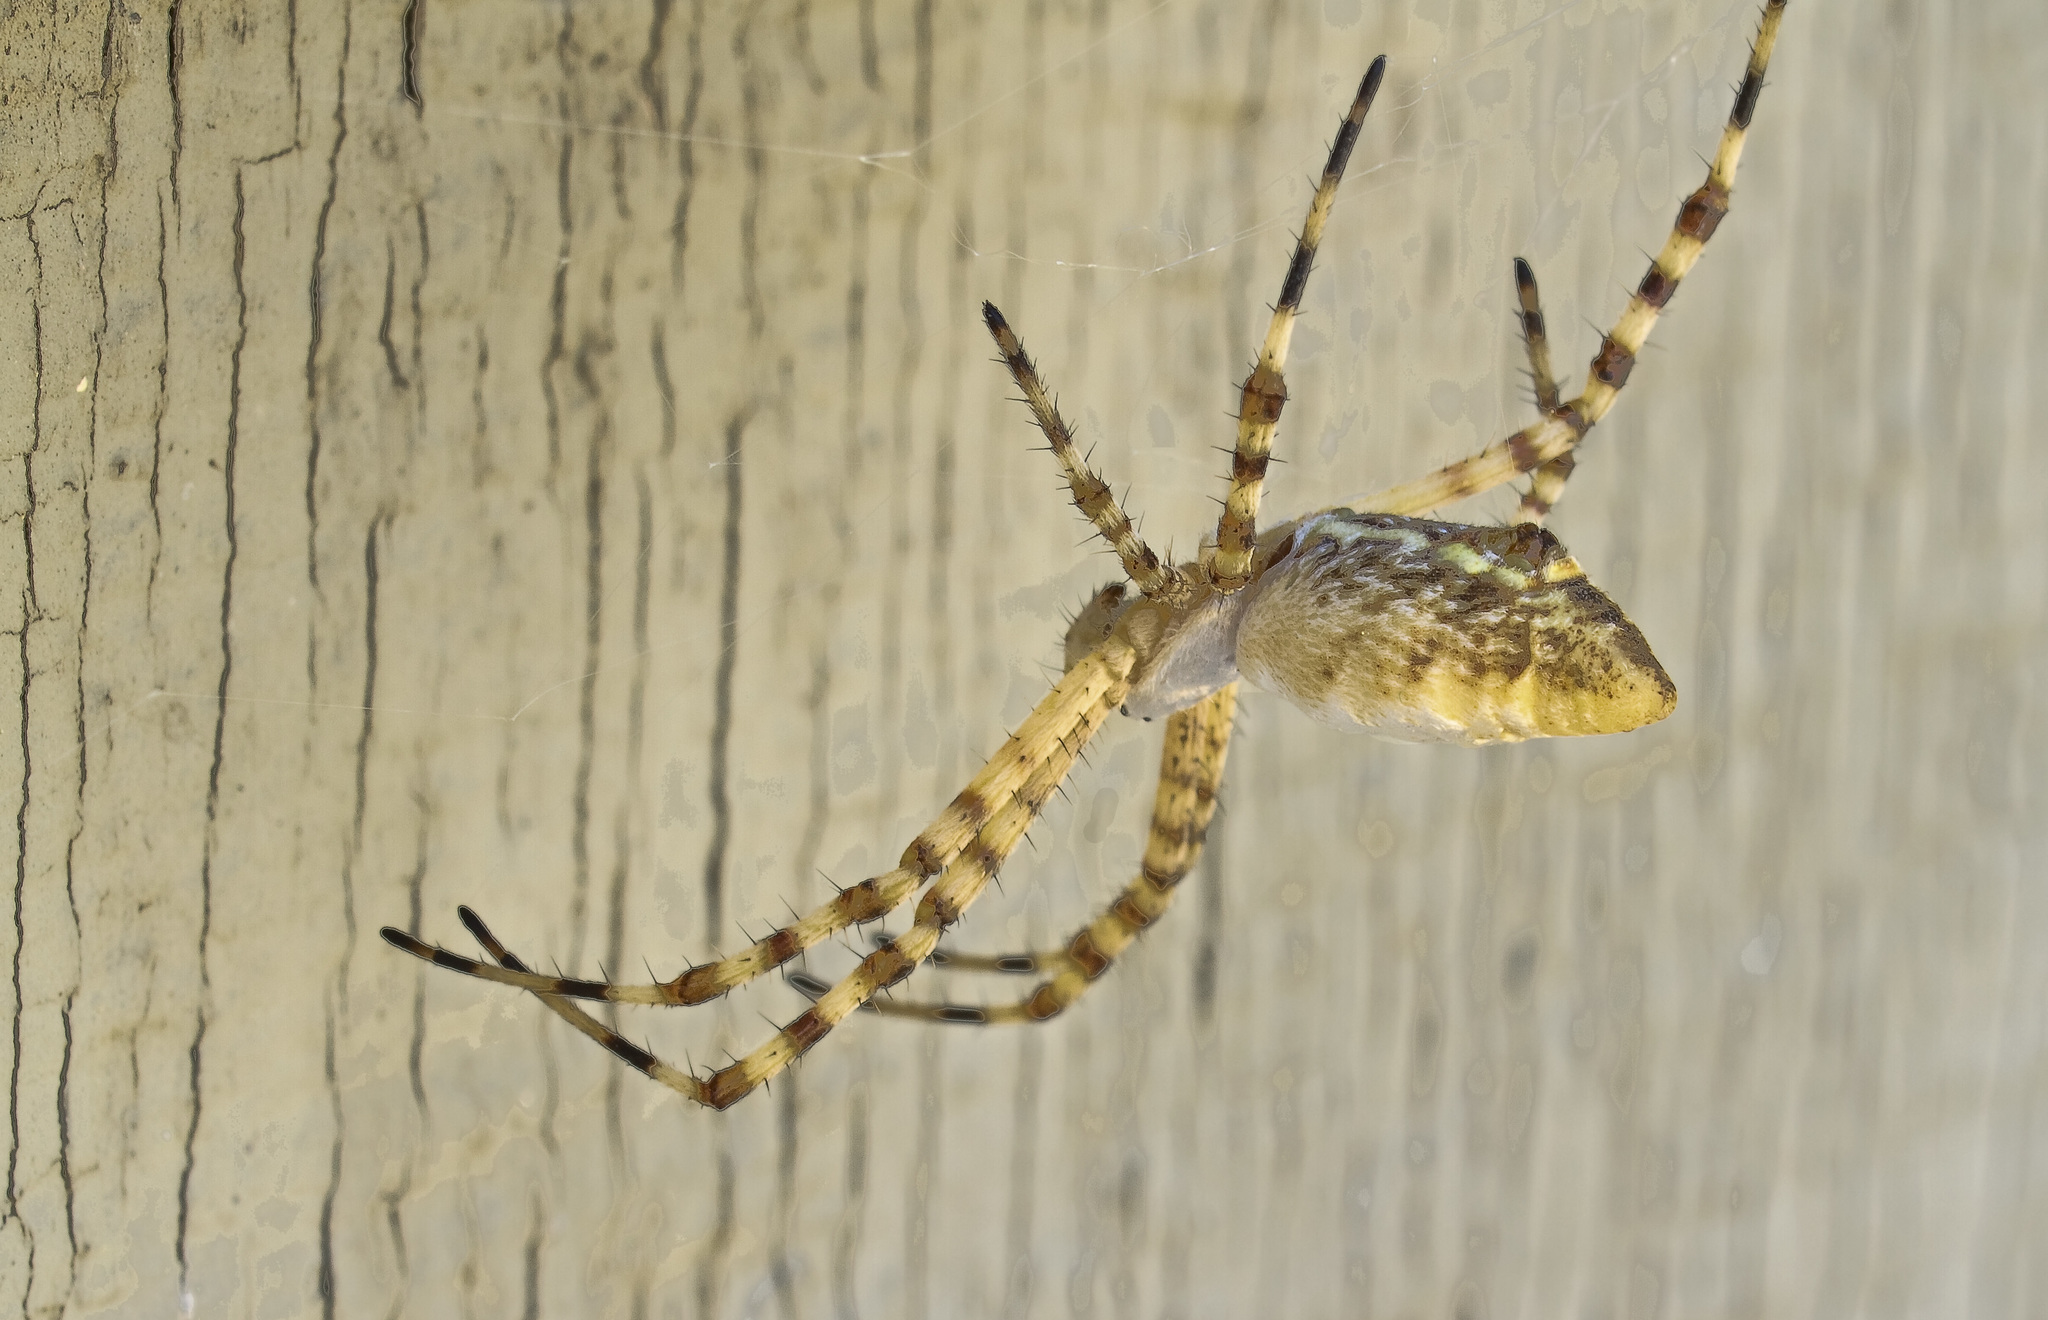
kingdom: Animalia
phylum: Arthropoda
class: Arachnida
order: Araneae
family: Araneidae
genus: Argiope
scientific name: Argiope trifasciata
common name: Banded garden spider
